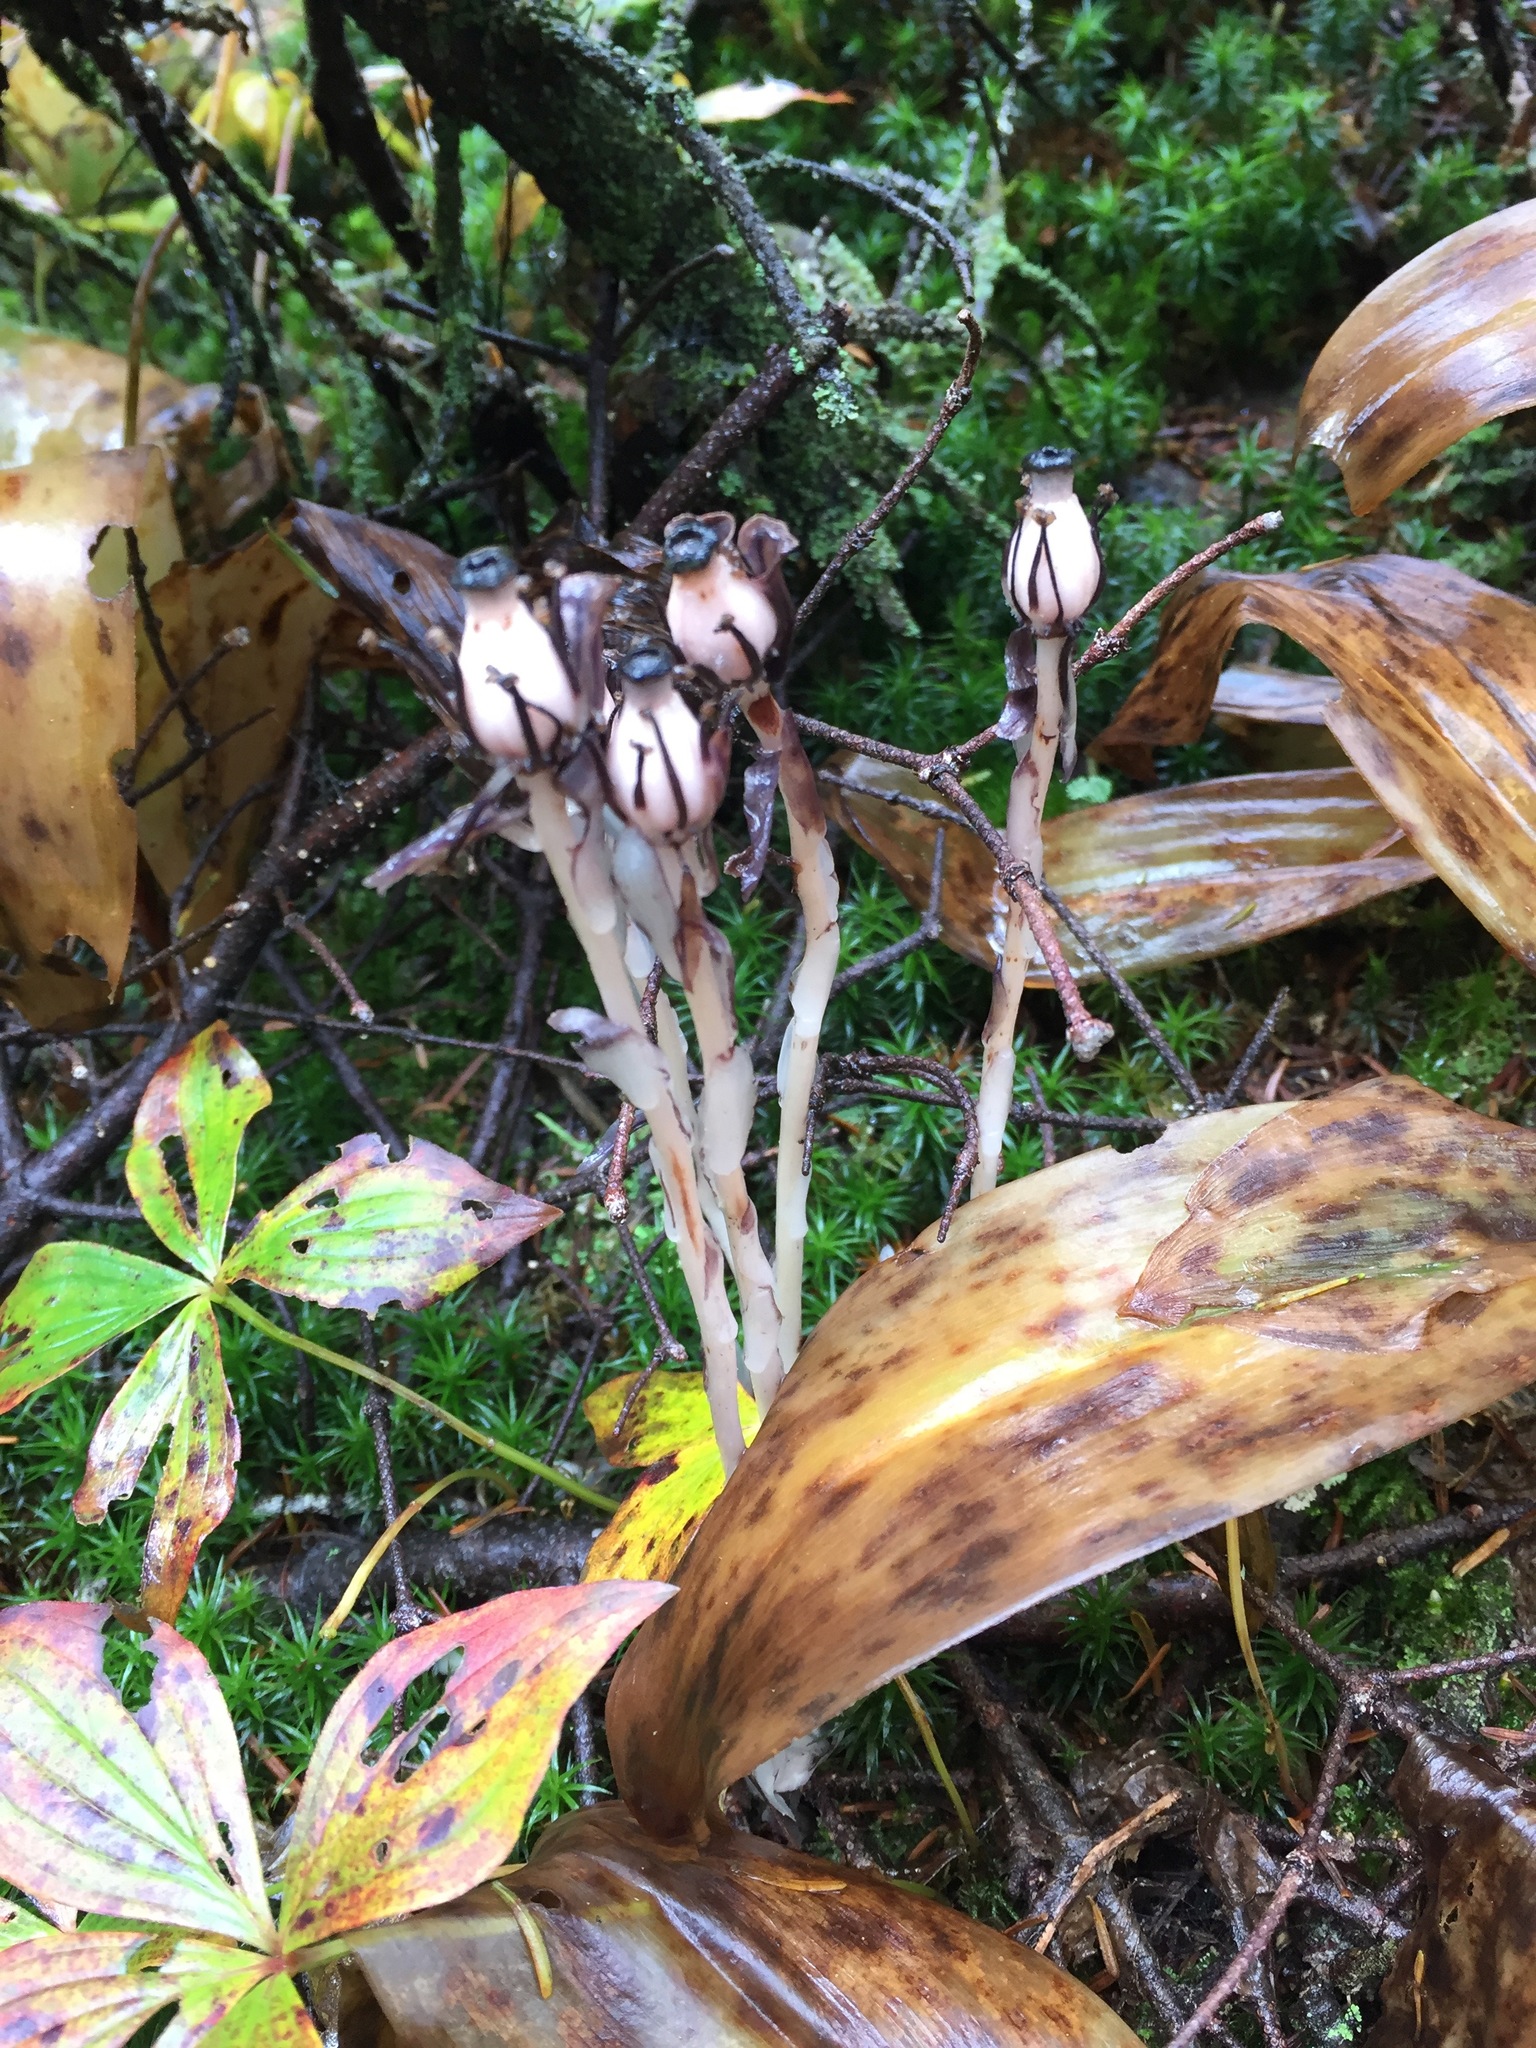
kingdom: Plantae
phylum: Tracheophyta
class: Magnoliopsida
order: Ericales
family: Ericaceae
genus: Monotropa
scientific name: Monotropa uniflora
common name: Convulsion root
